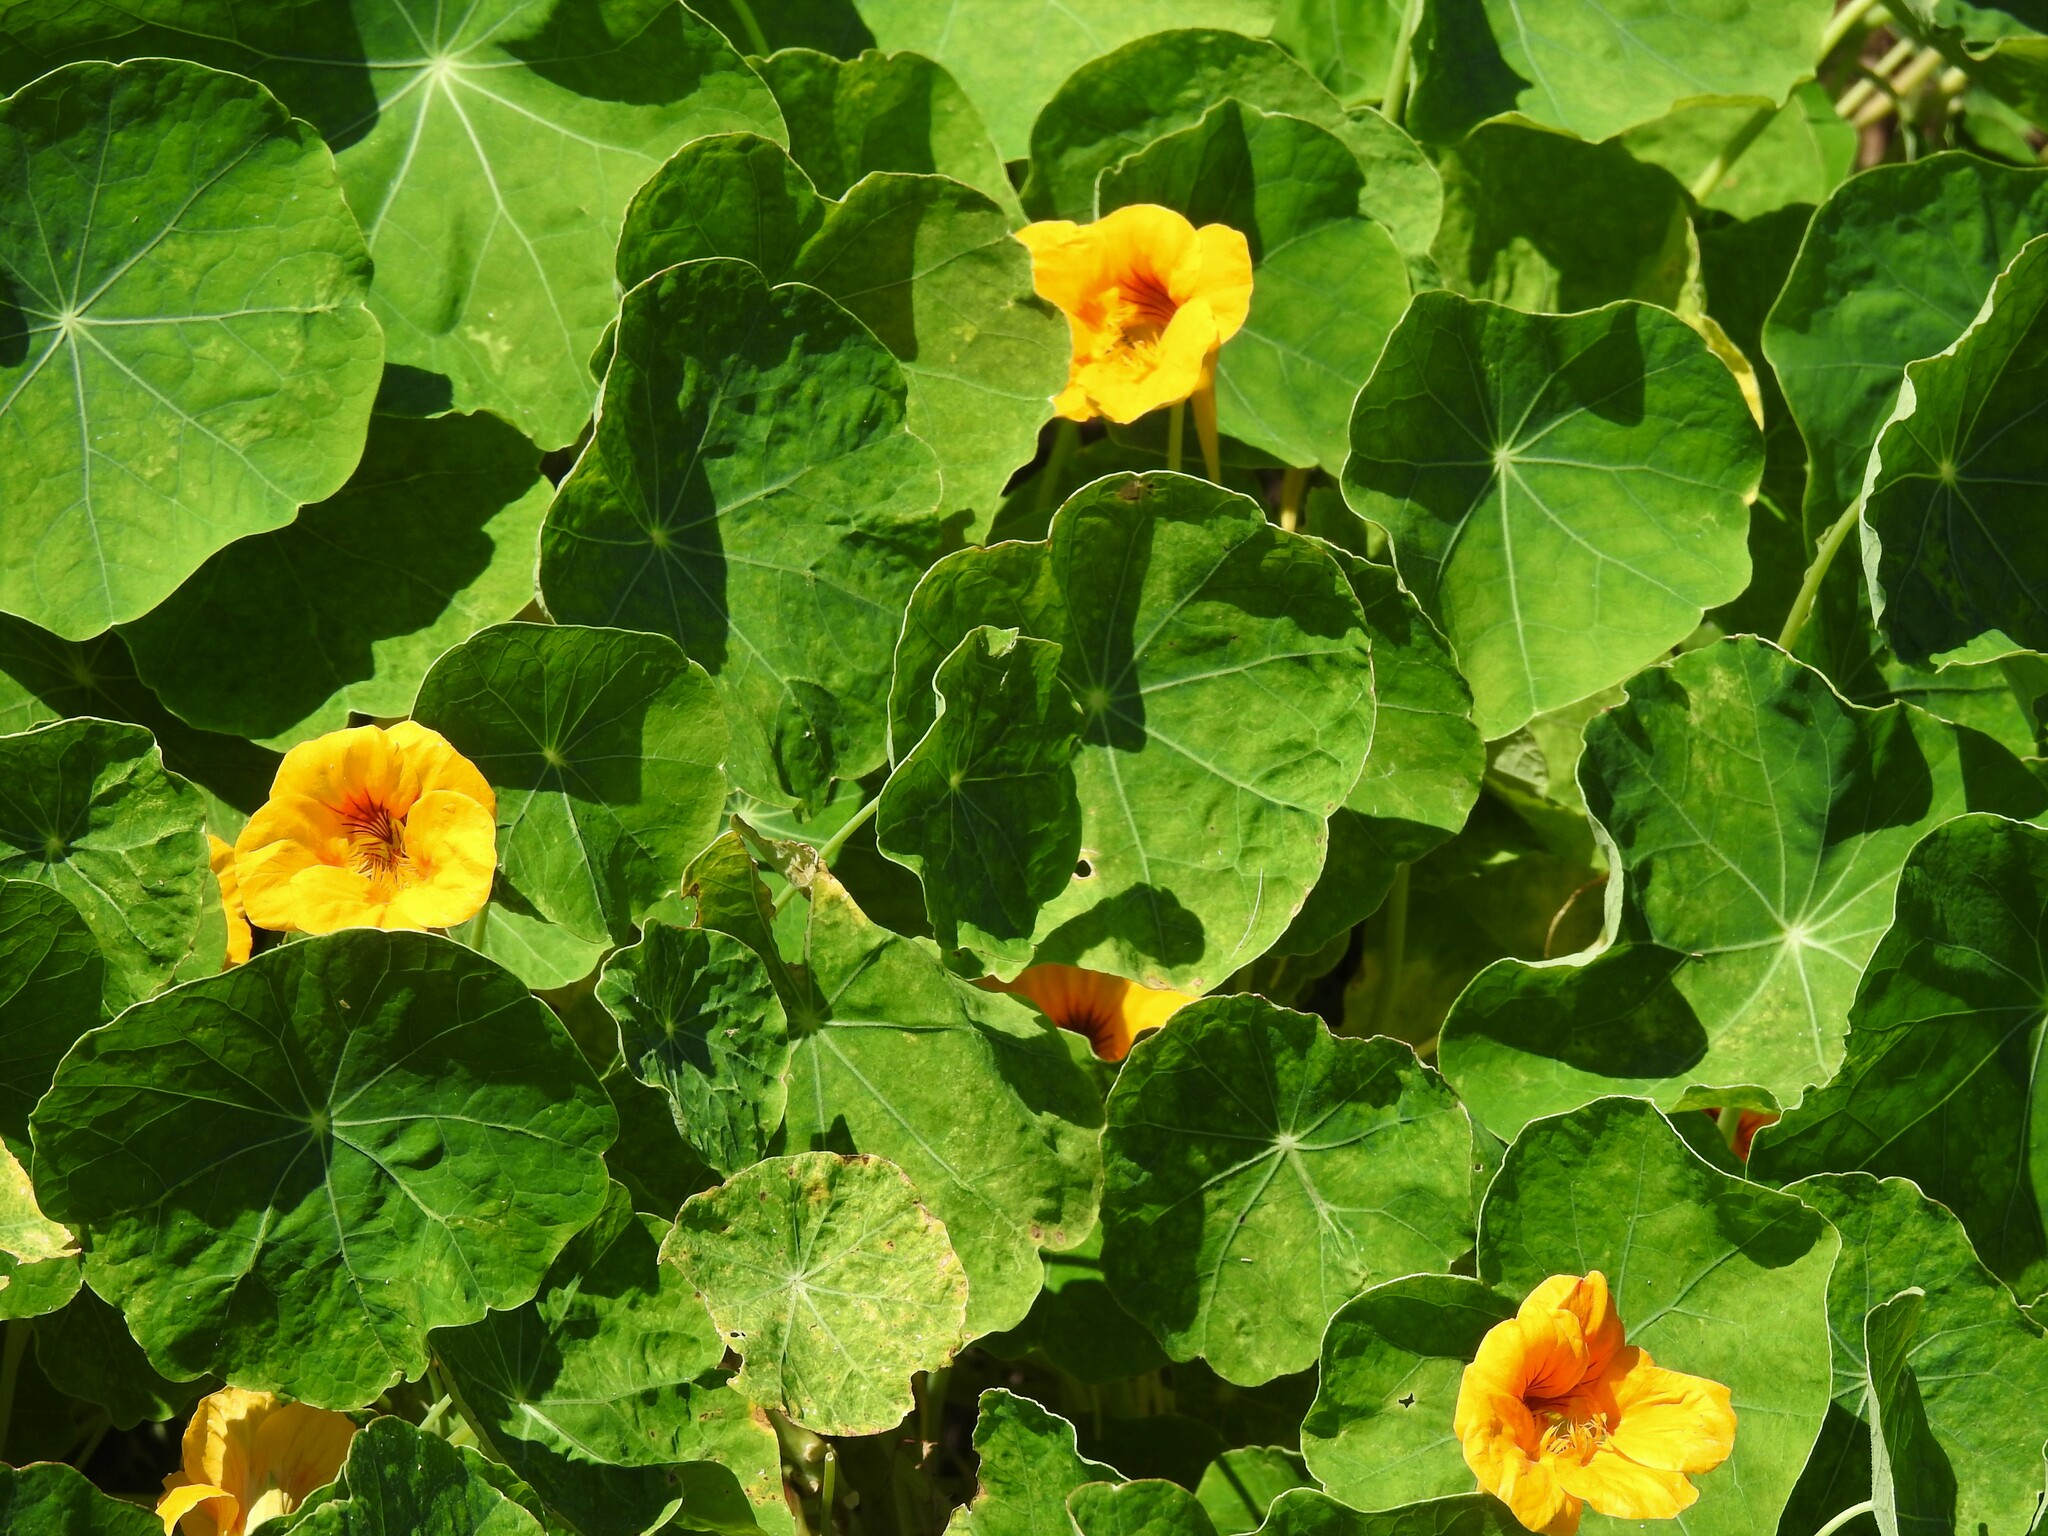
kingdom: Plantae
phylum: Tracheophyta
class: Magnoliopsida
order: Brassicales
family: Tropaeolaceae
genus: Tropaeolum
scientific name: Tropaeolum majus
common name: Nasturtium
